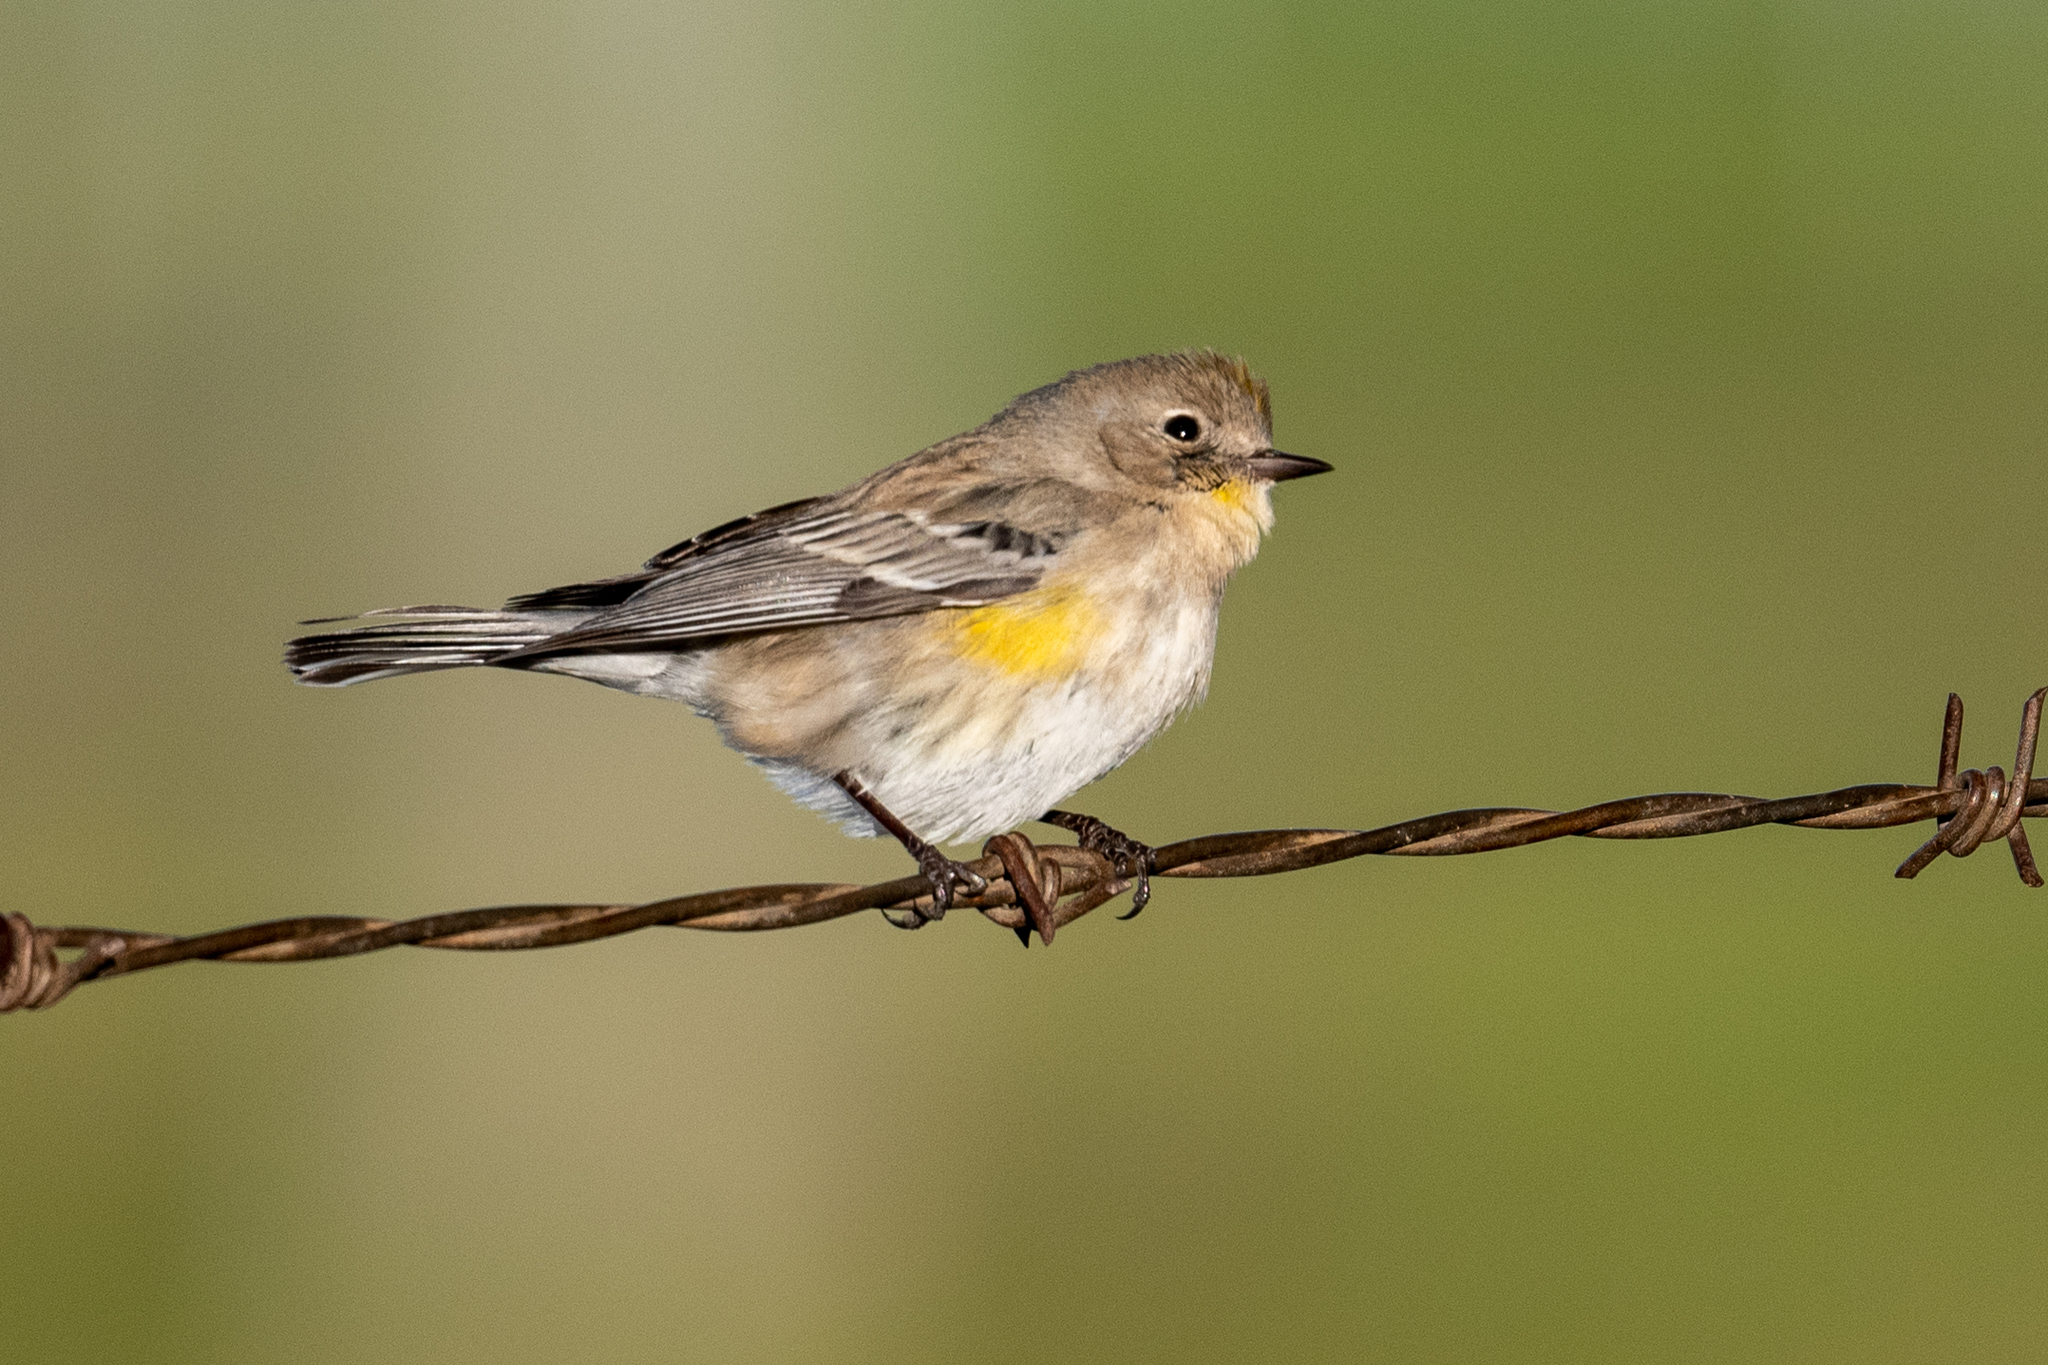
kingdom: Animalia
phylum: Chordata
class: Aves
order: Passeriformes
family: Parulidae
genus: Setophaga
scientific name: Setophaga coronata
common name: Myrtle warbler
